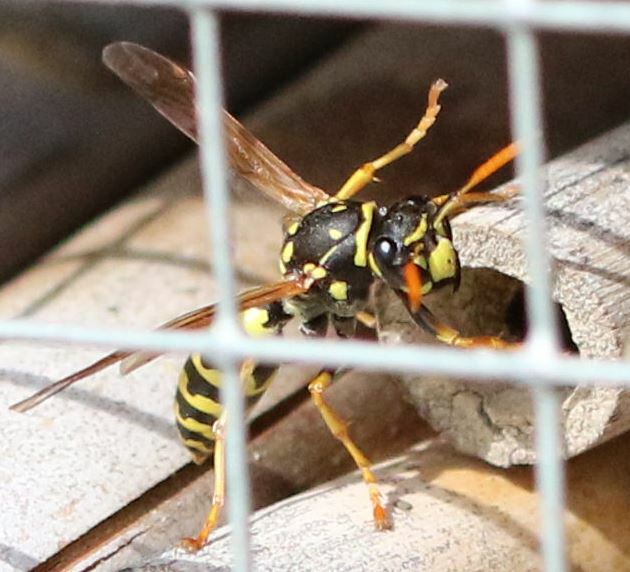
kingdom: Animalia
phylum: Arthropoda
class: Insecta
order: Hymenoptera
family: Eumenidae
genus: Polistes
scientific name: Polistes dominula
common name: Paper wasp
